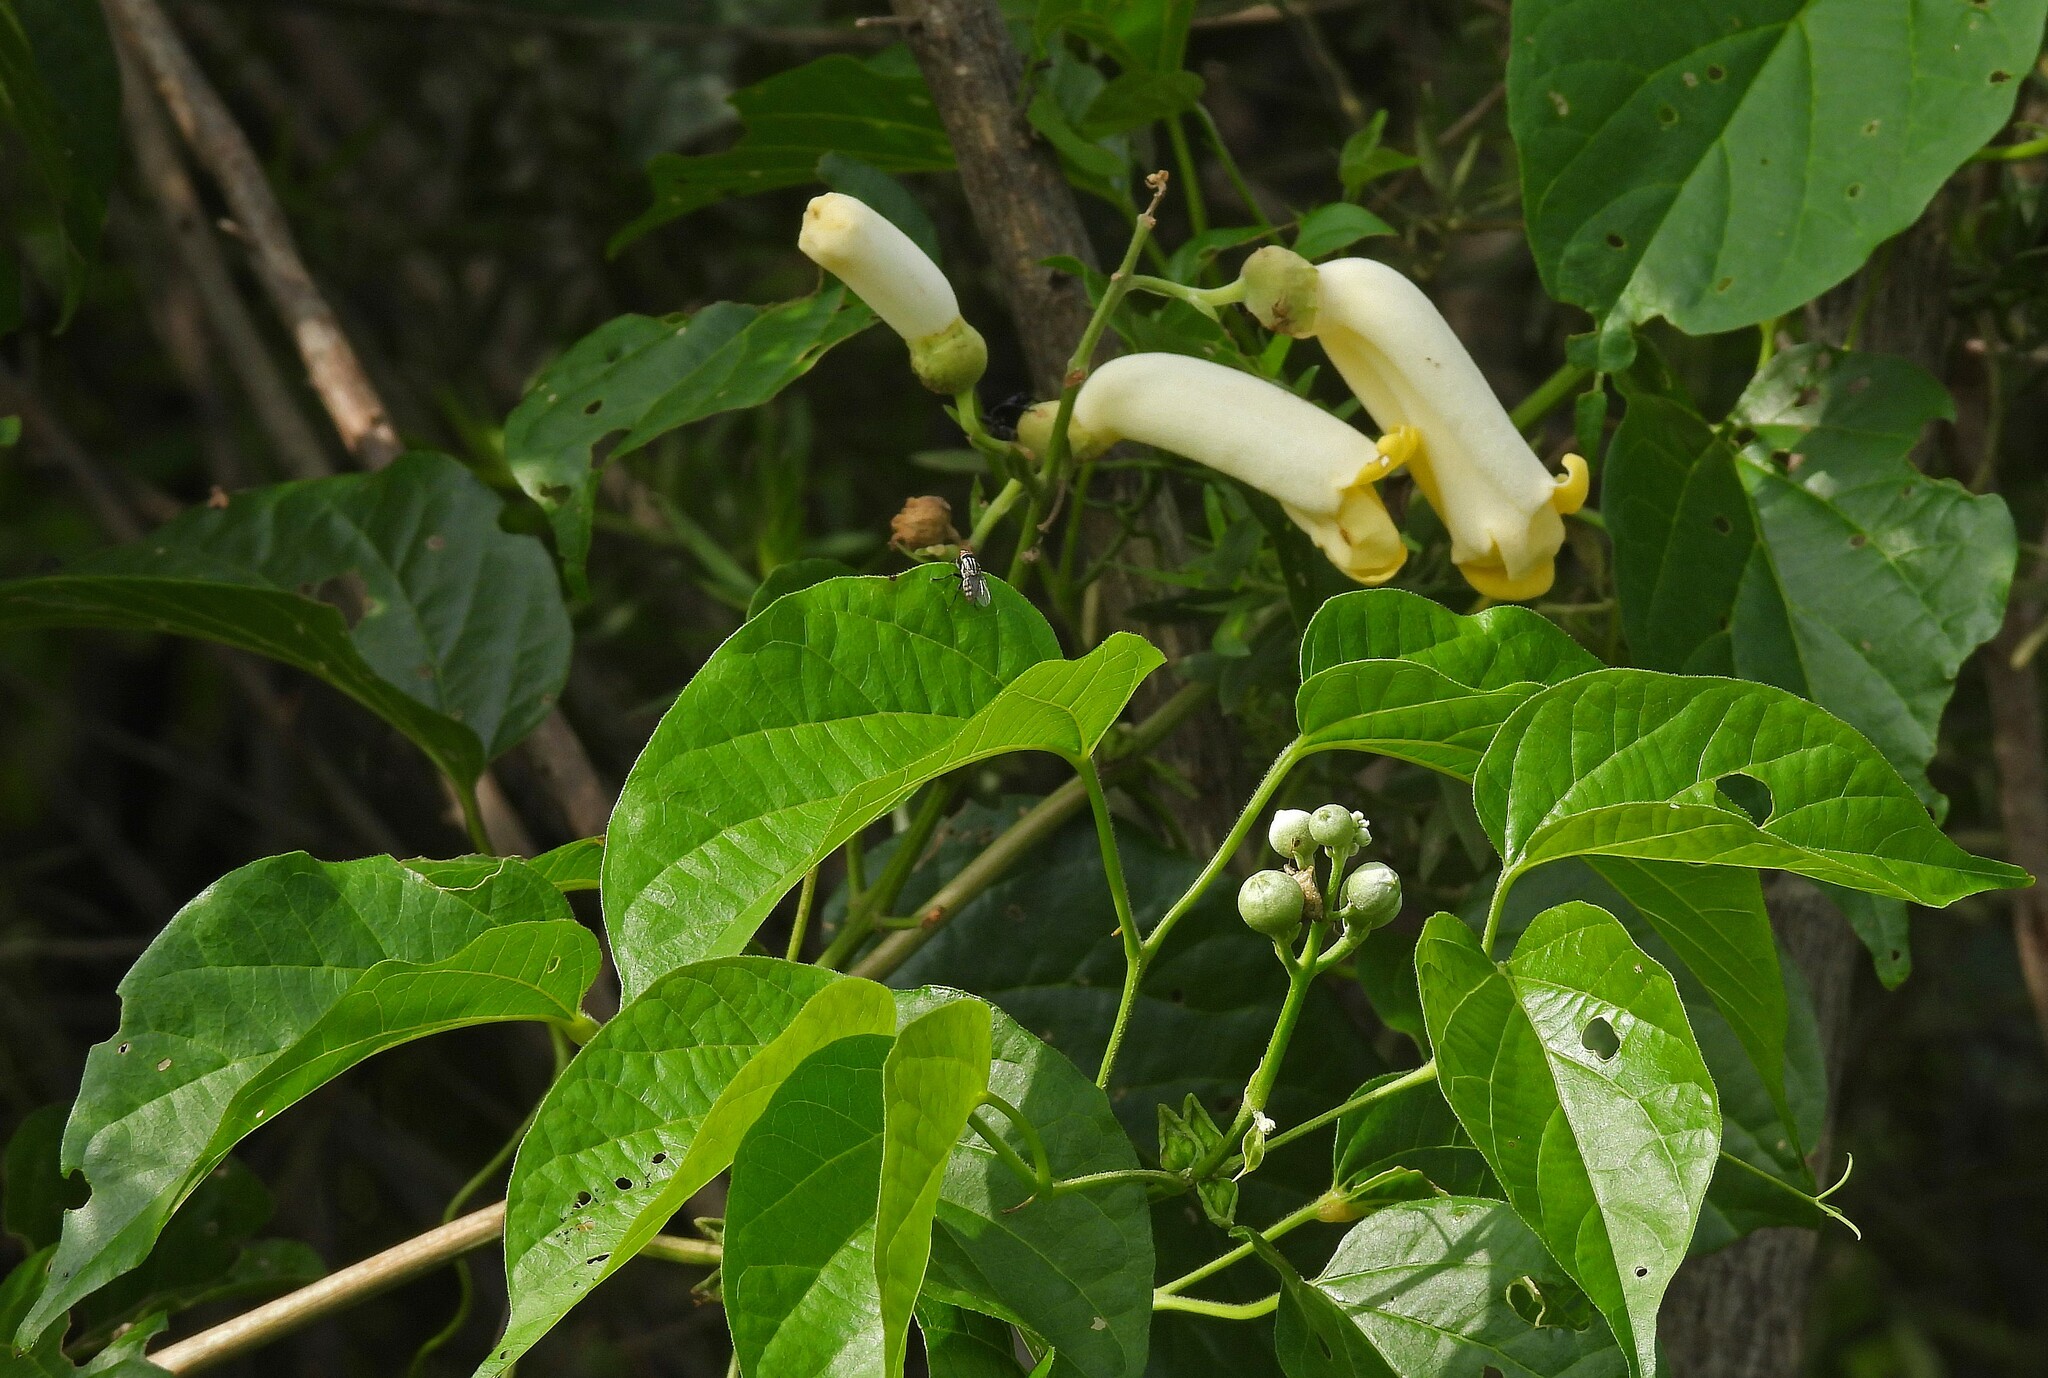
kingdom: Plantae
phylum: Tracheophyta
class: Magnoliopsida
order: Lamiales
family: Bignoniaceae
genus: Amphilophium
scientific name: Amphilophium crucigerum
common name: Monkey comb
